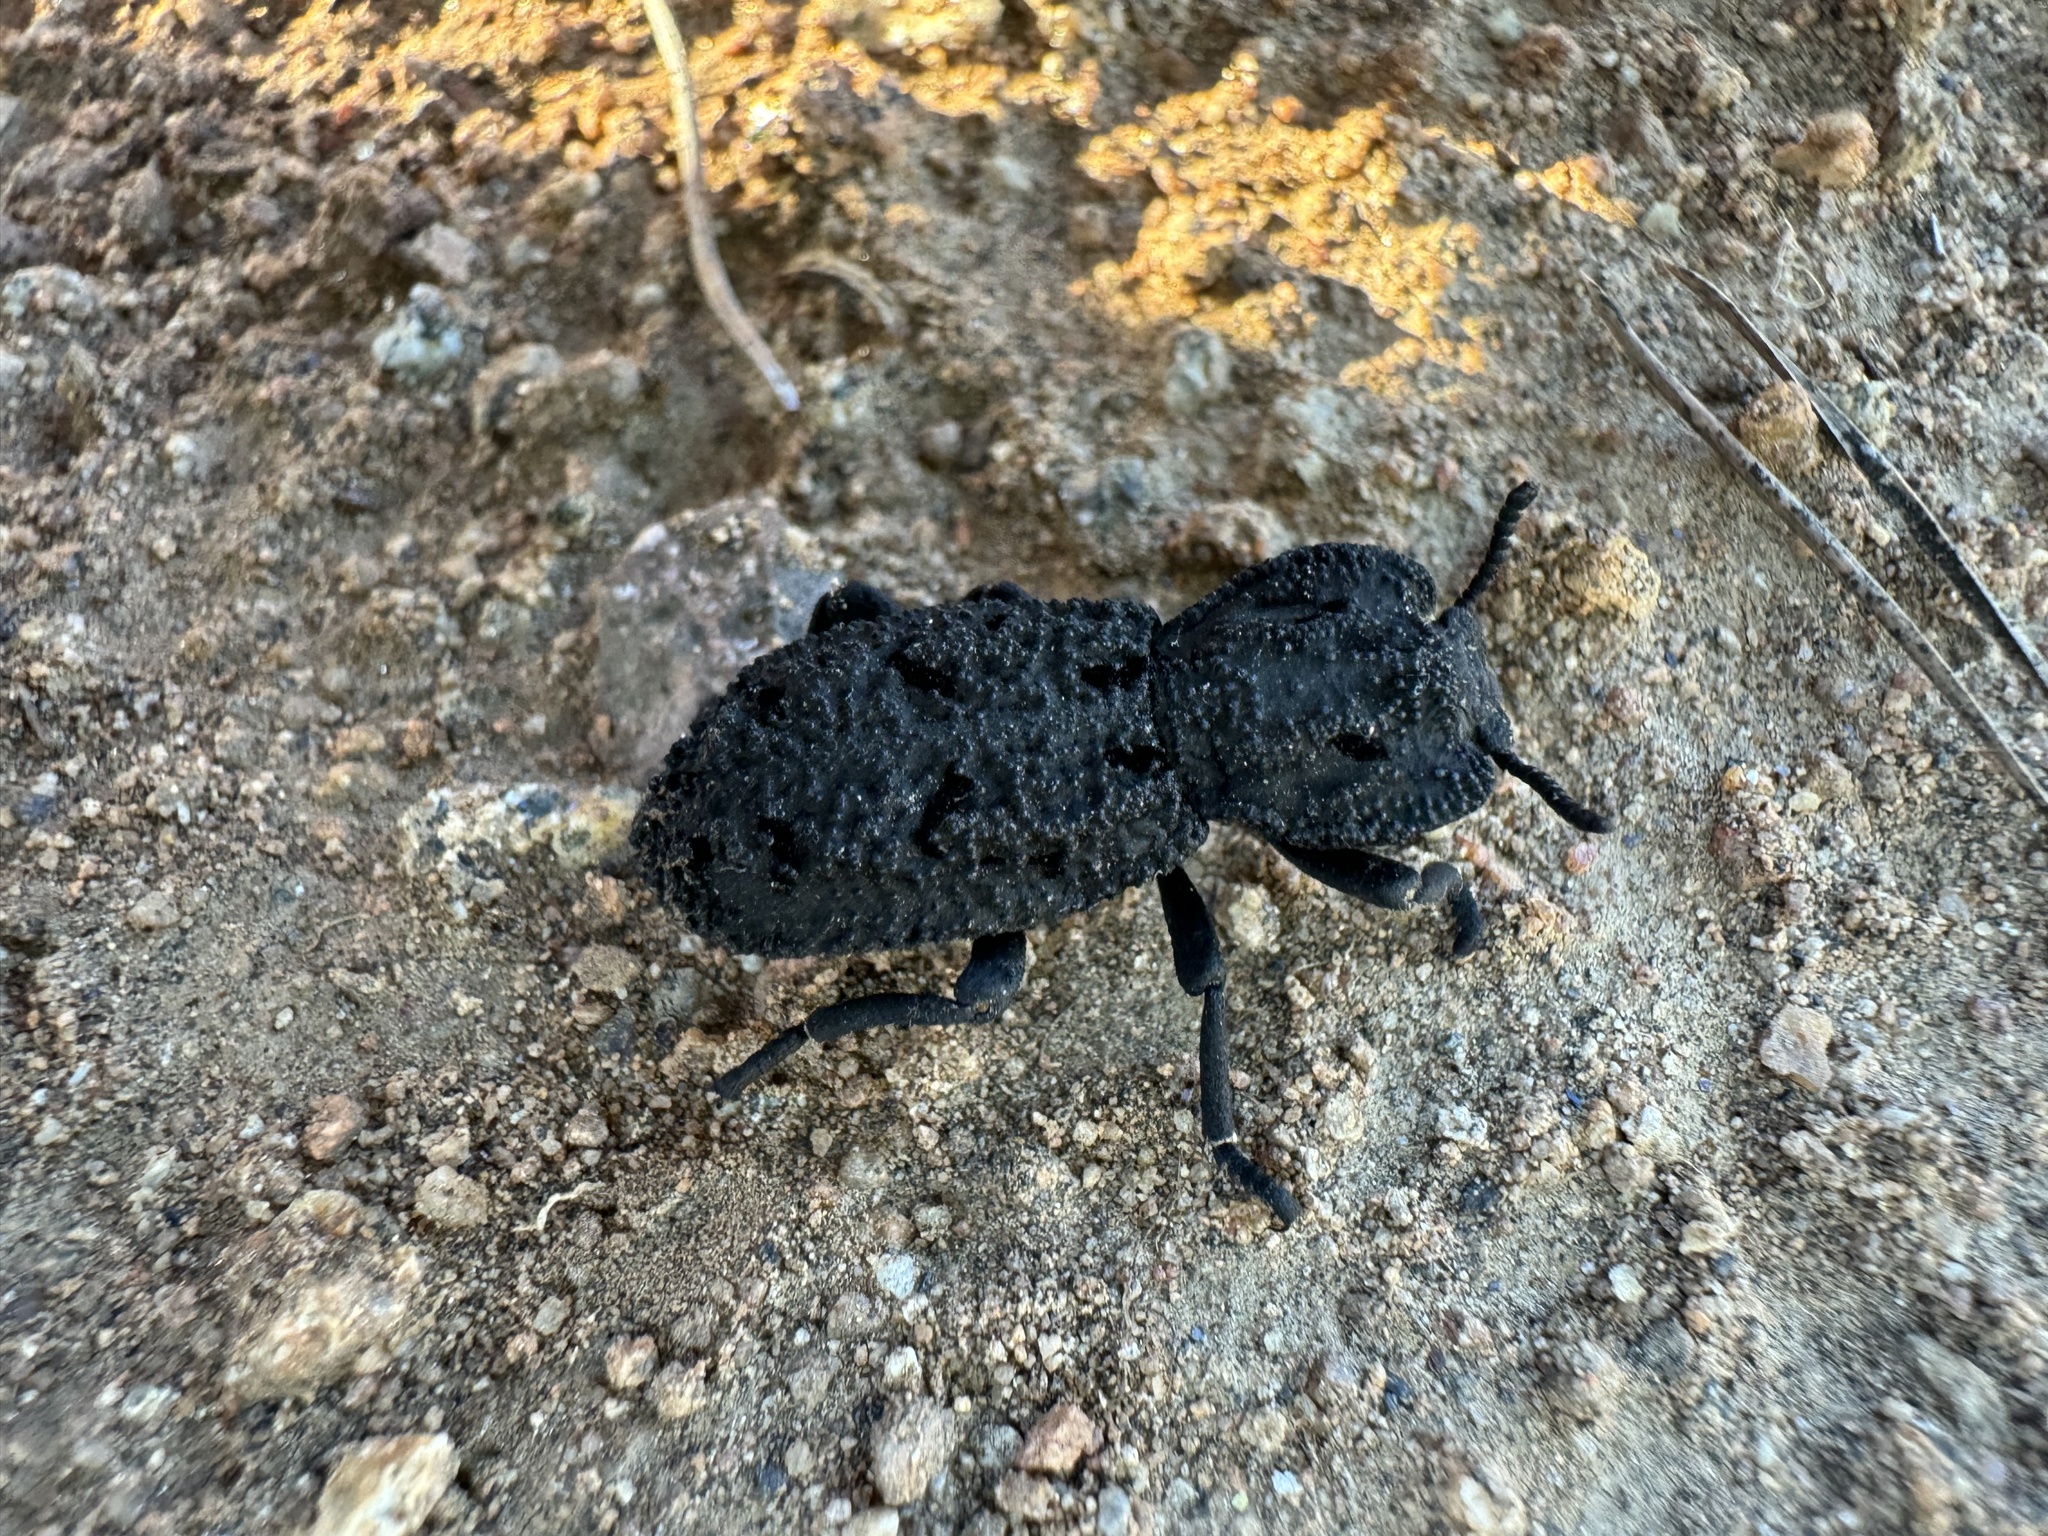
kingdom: Animalia
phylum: Arthropoda
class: Insecta
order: Coleoptera
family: Zopheridae
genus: Phloeodes
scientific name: Phloeodes diabolicus
